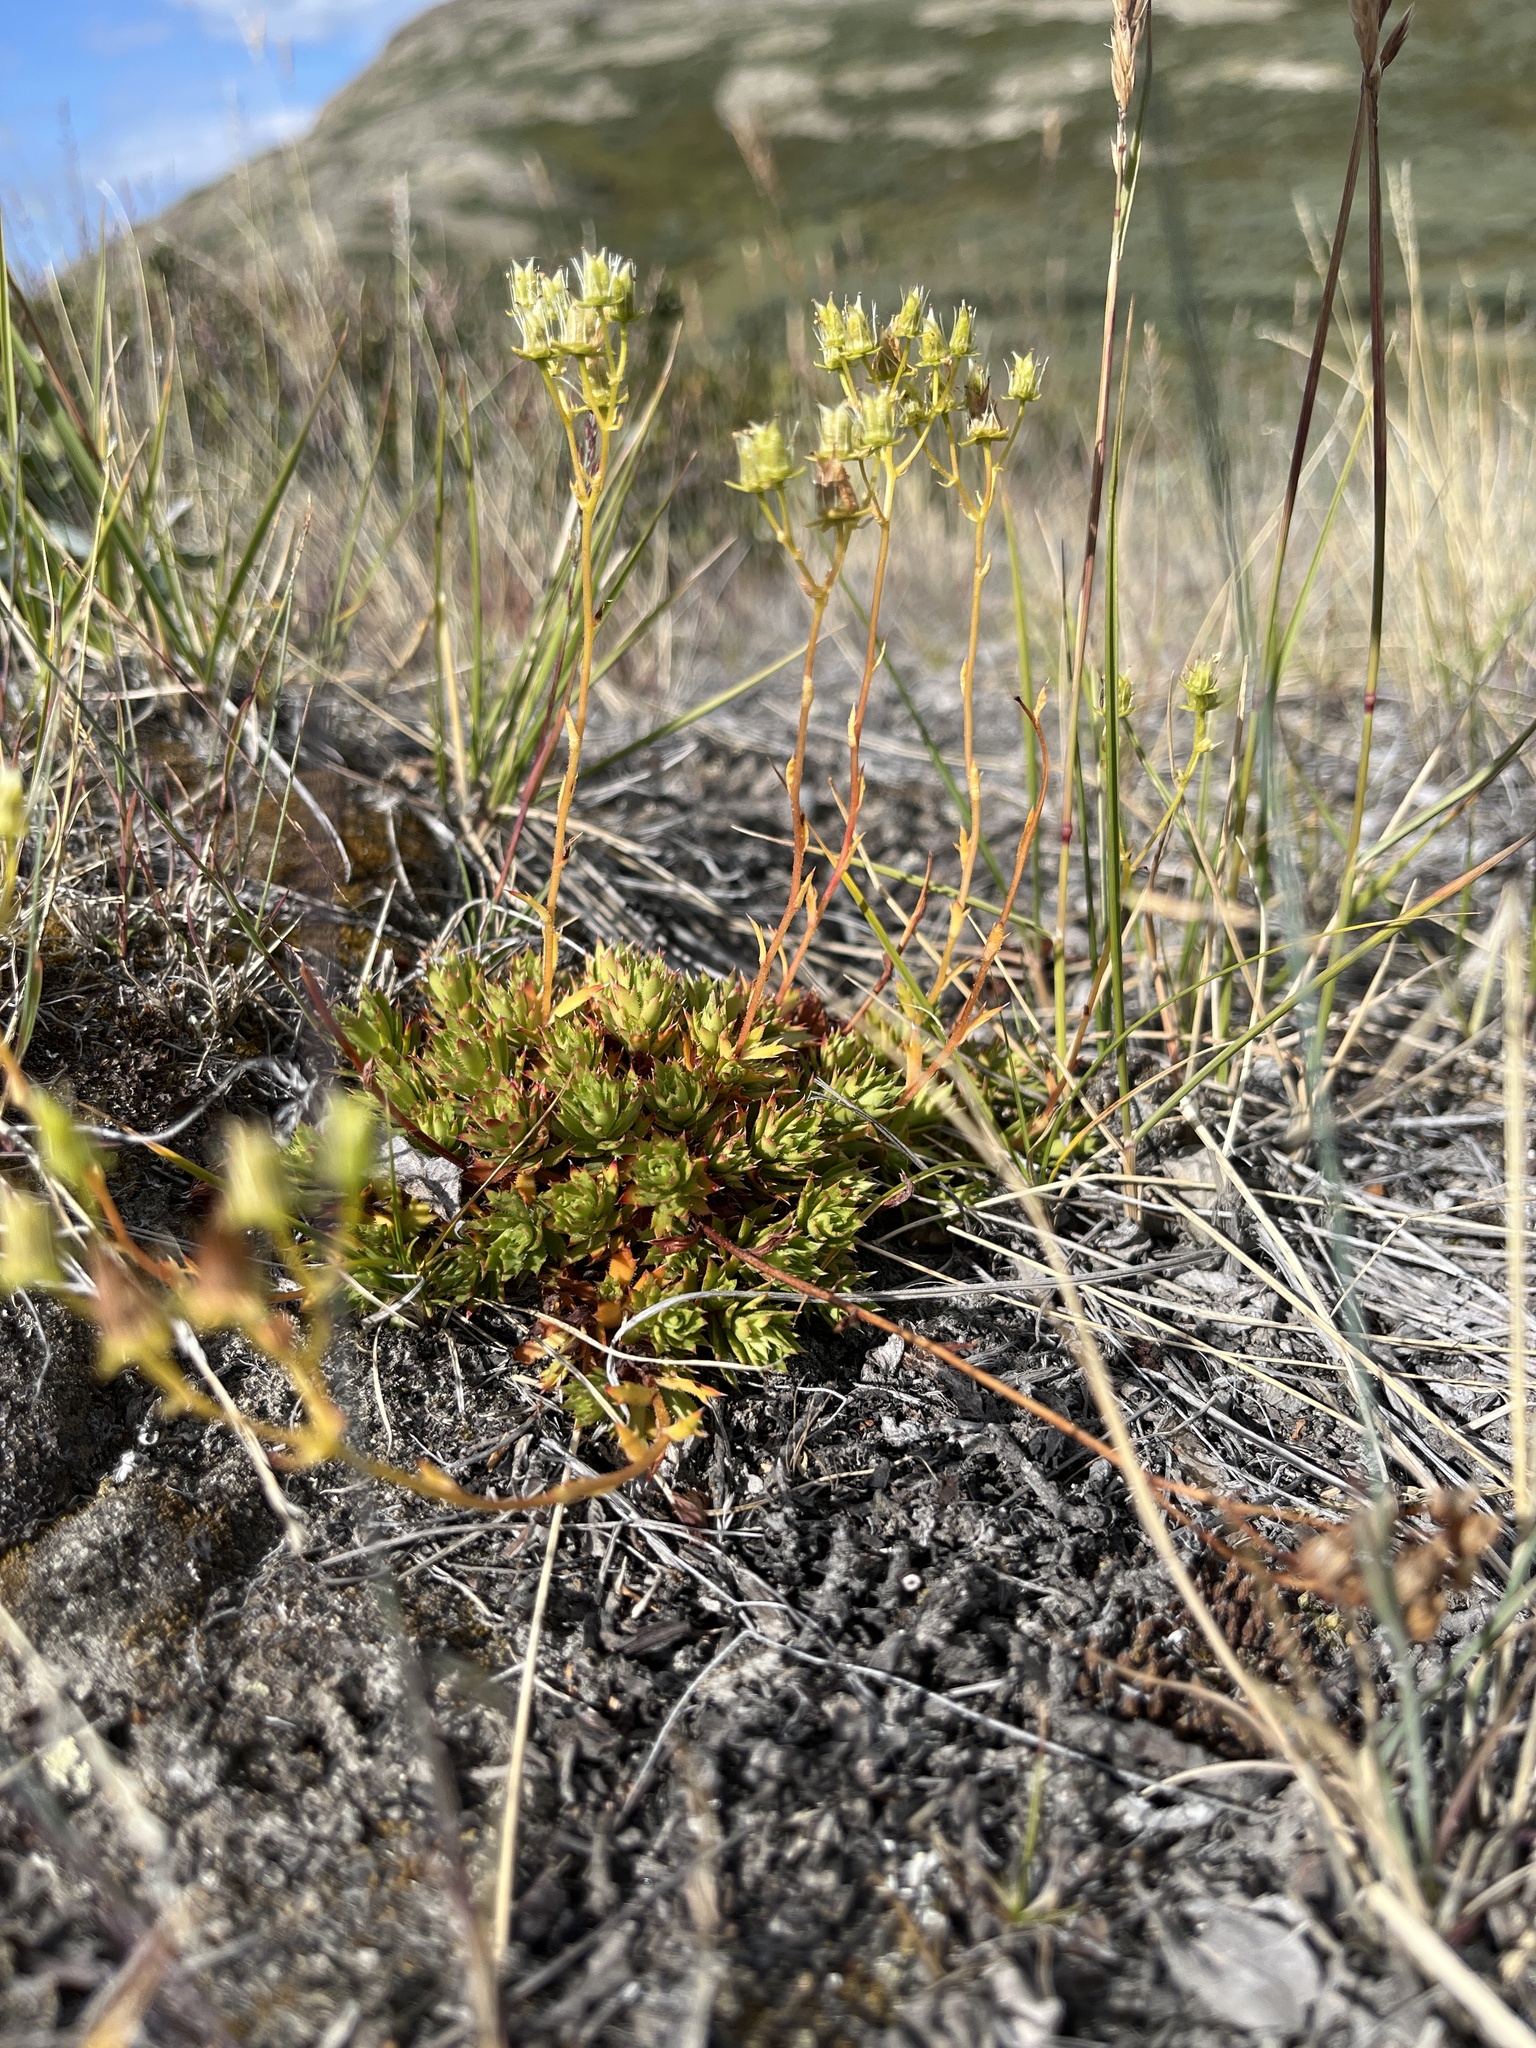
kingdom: Plantae
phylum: Tracheophyta
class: Magnoliopsida
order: Saxifragales
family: Saxifragaceae
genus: Saxifraga
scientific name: Saxifraga tricuspidata
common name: Prickly saxifrage
